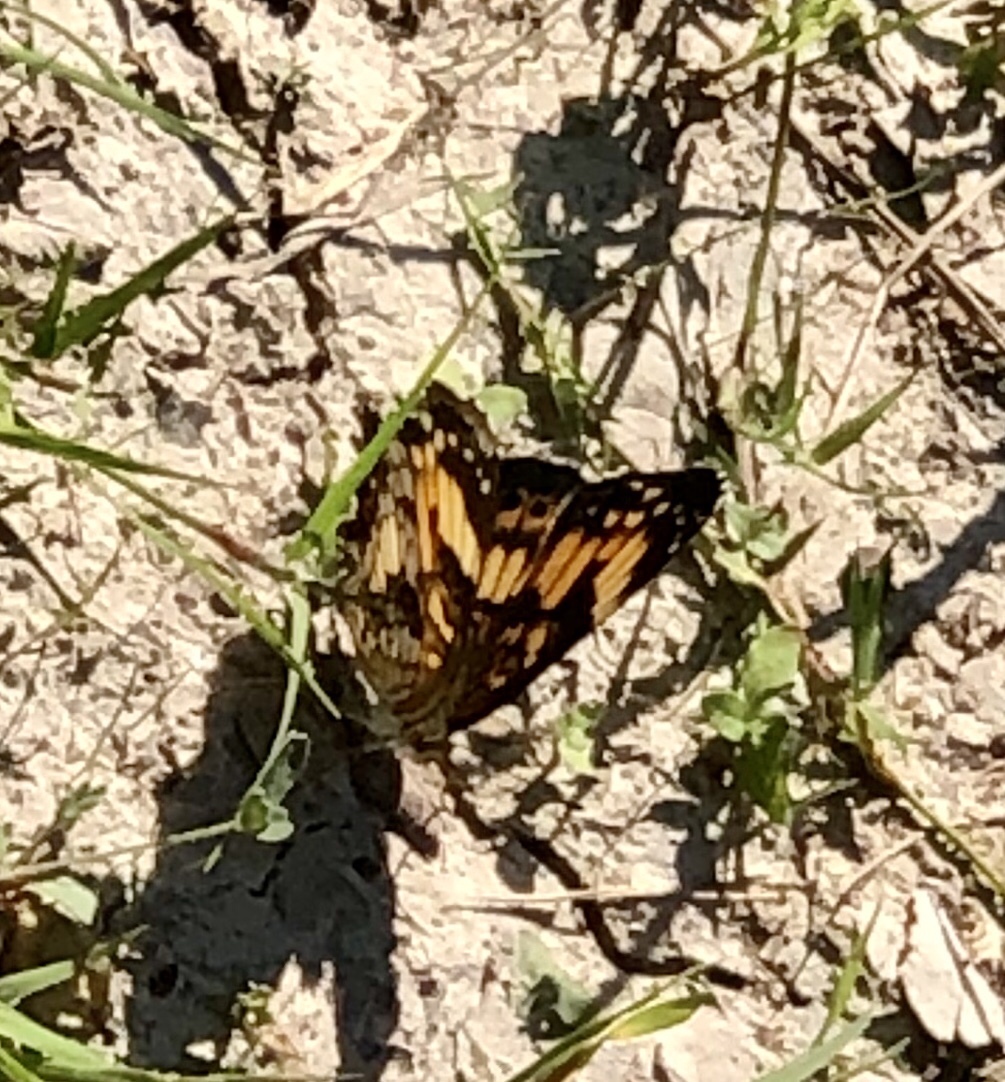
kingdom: Animalia
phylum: Arthropoda
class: Insecta
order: Lepidoptera
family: Nymphalidae
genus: Chlosyne
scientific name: Chlosyne nycteis
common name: Silvery checkerspot
